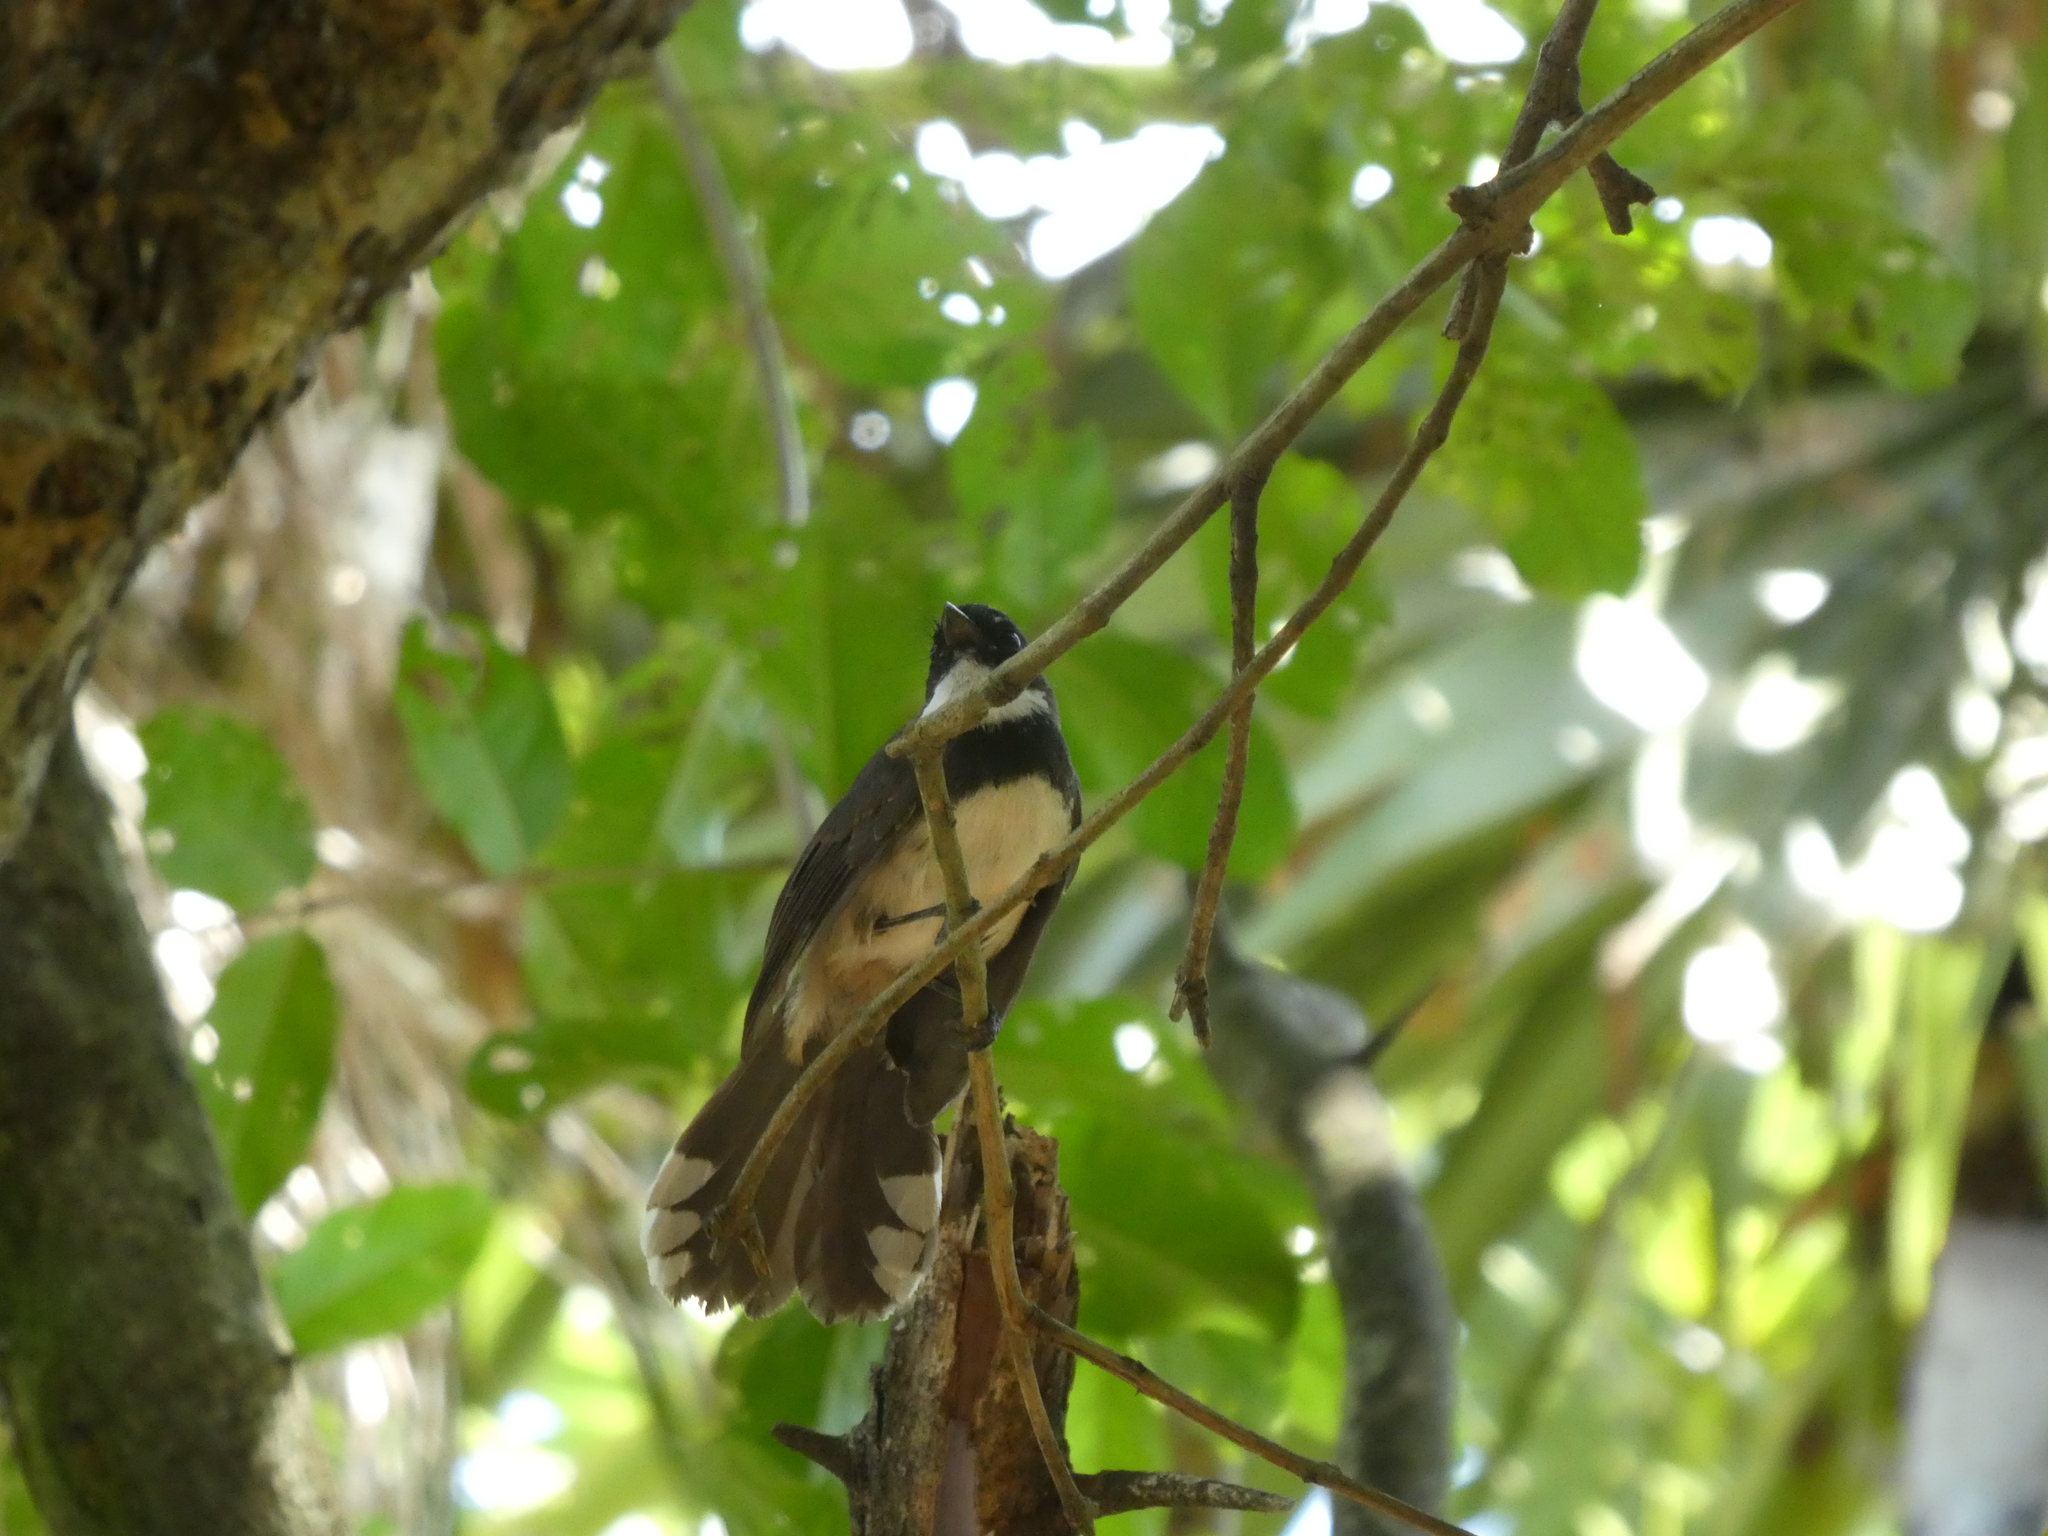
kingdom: Animalia
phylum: Chordata
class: Aves
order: Passeriformes
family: Rhipiduridae
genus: Rhipidura
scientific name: Rhipidura javanica
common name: Pied fantail
